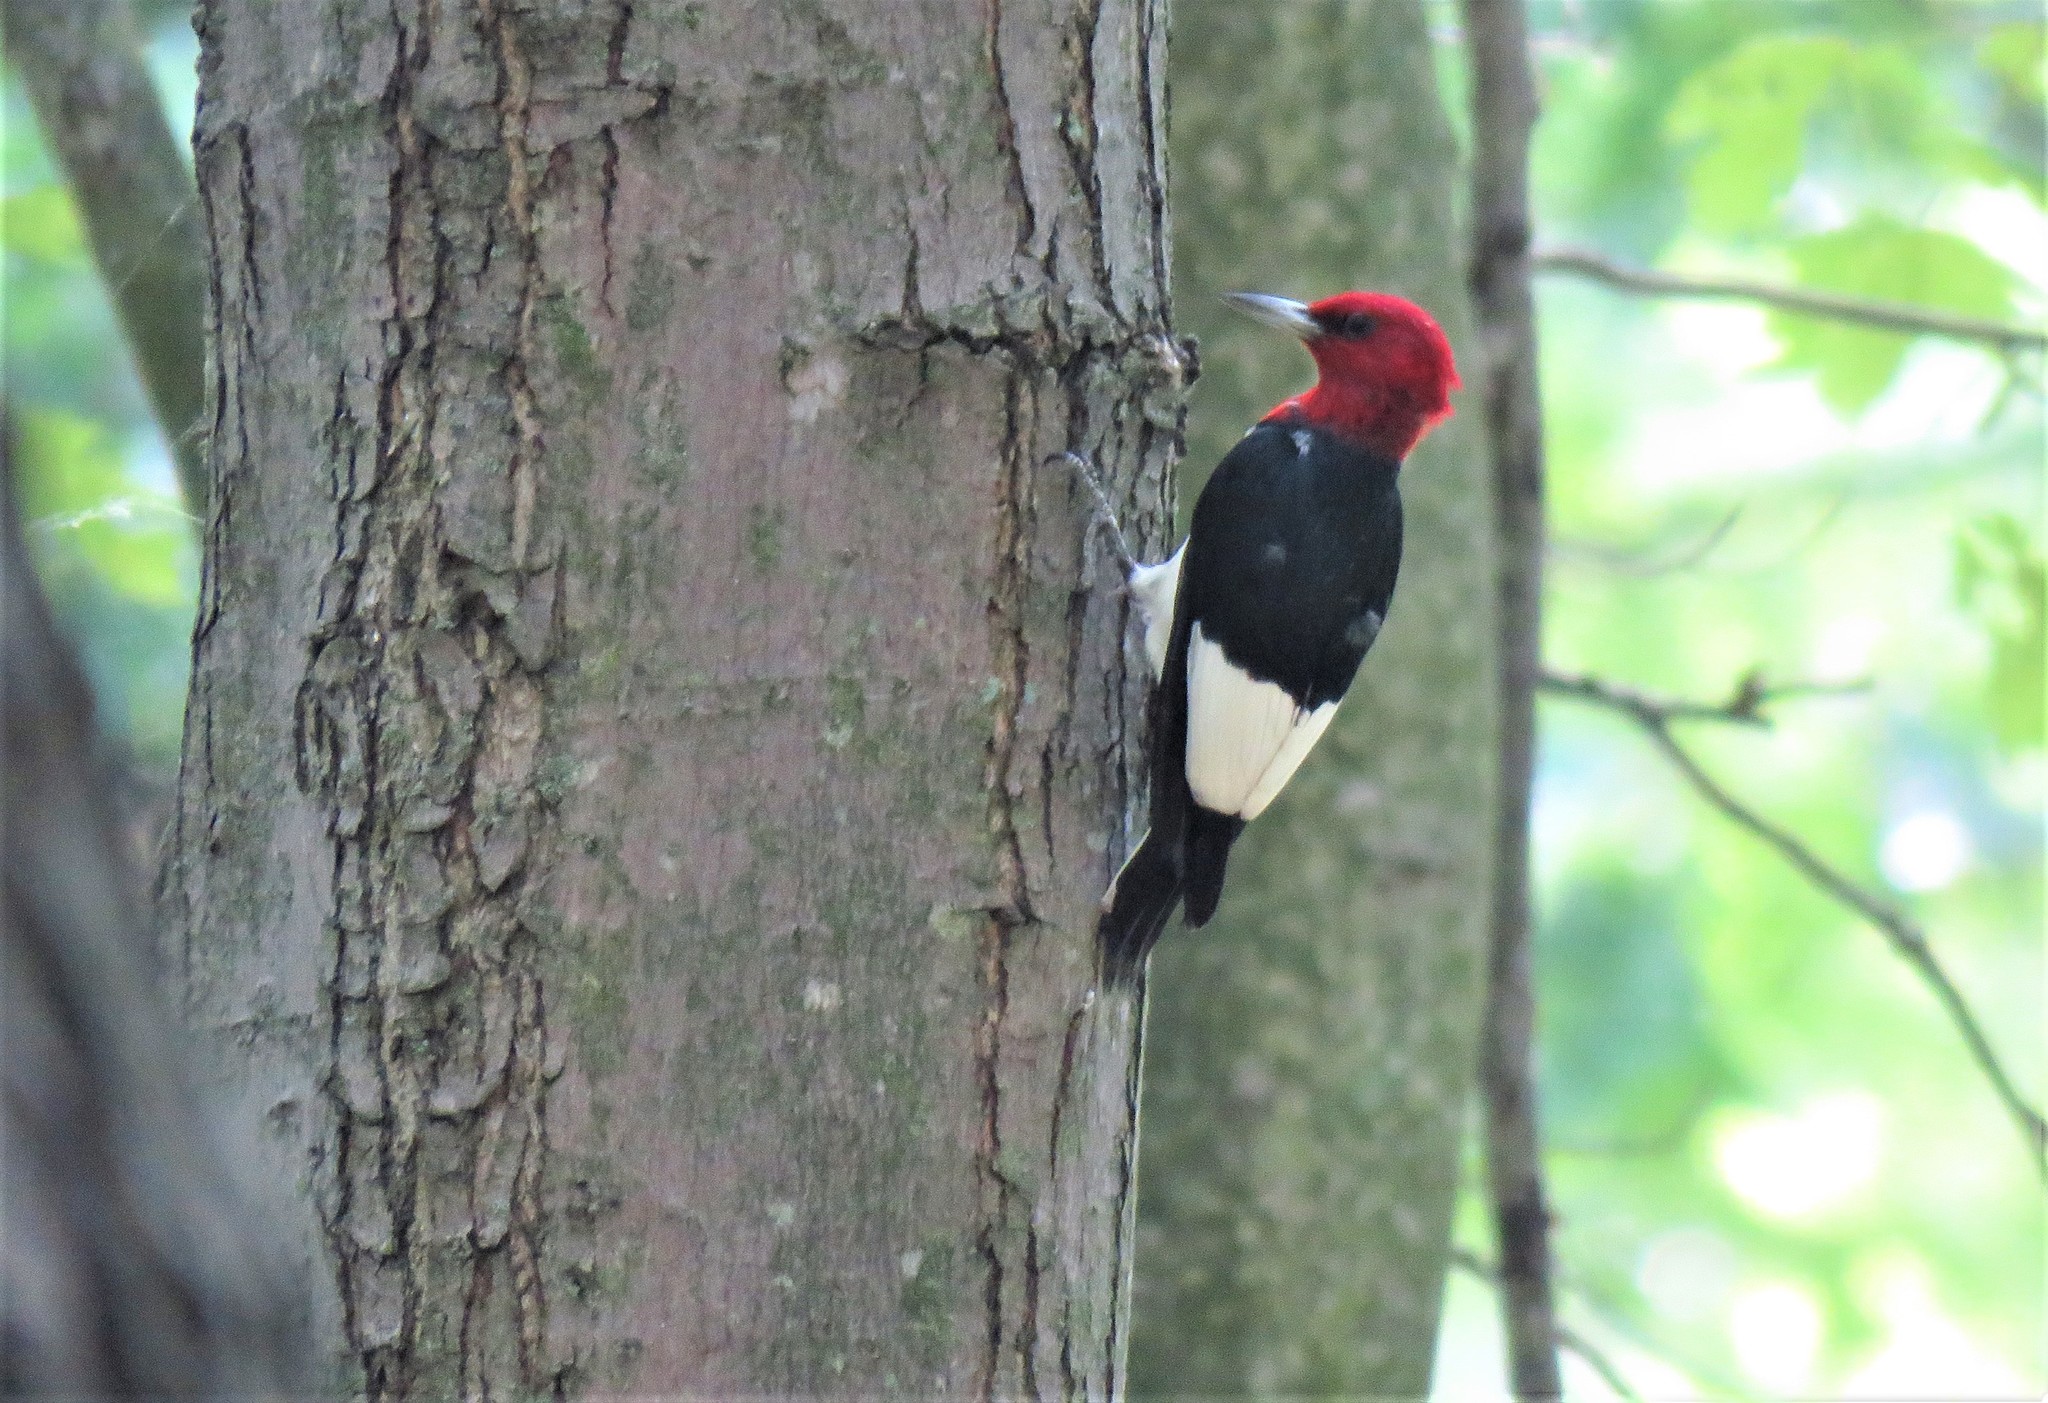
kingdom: Animalia
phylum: Chordata
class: Aves
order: Piciformes
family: Picidae
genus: Melanerpes
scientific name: Melanerpes erythrocephalus
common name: Red-headed woodpecker
